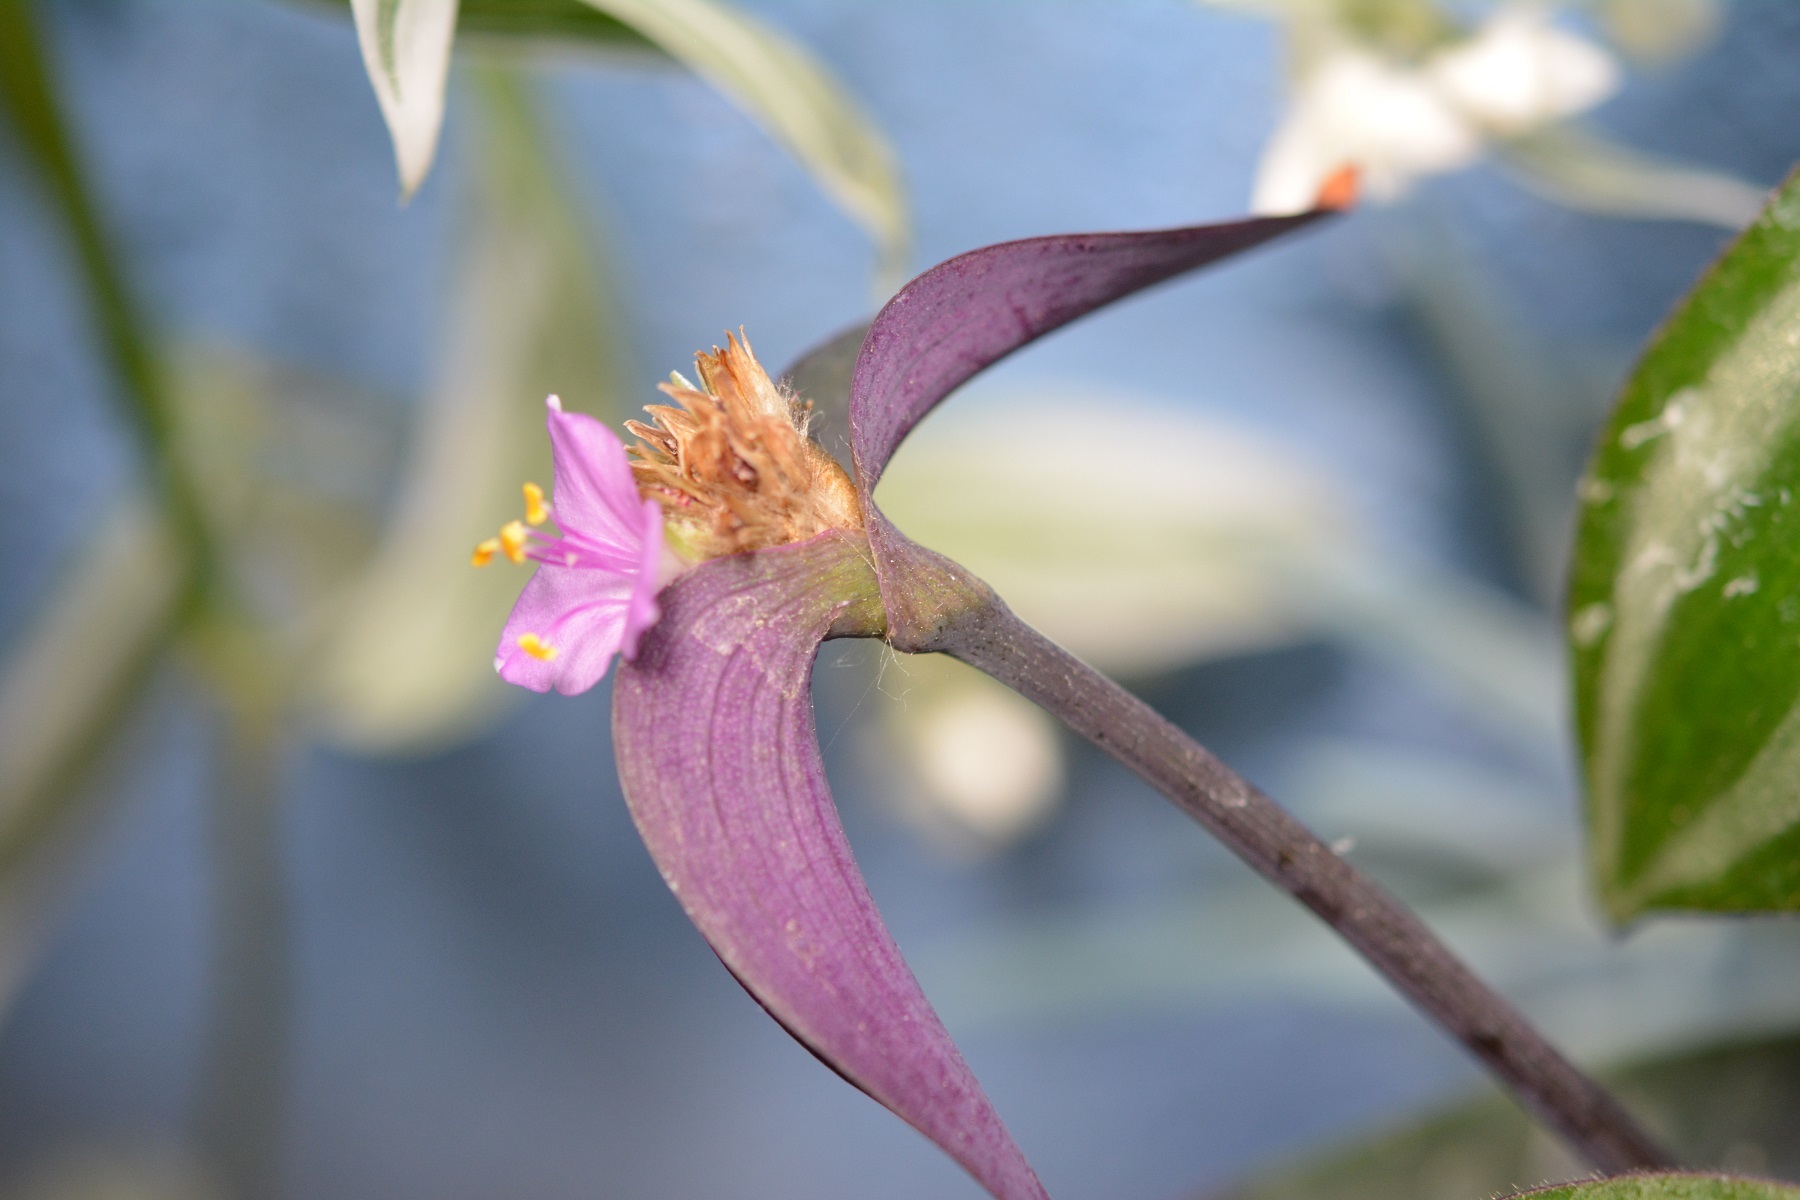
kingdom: Plantae
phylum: Tracheophyta
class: Liliopsida
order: Commelinales
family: Commelinaceae
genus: Tradescantia
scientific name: Tradescantia pallida
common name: Purpleheart
